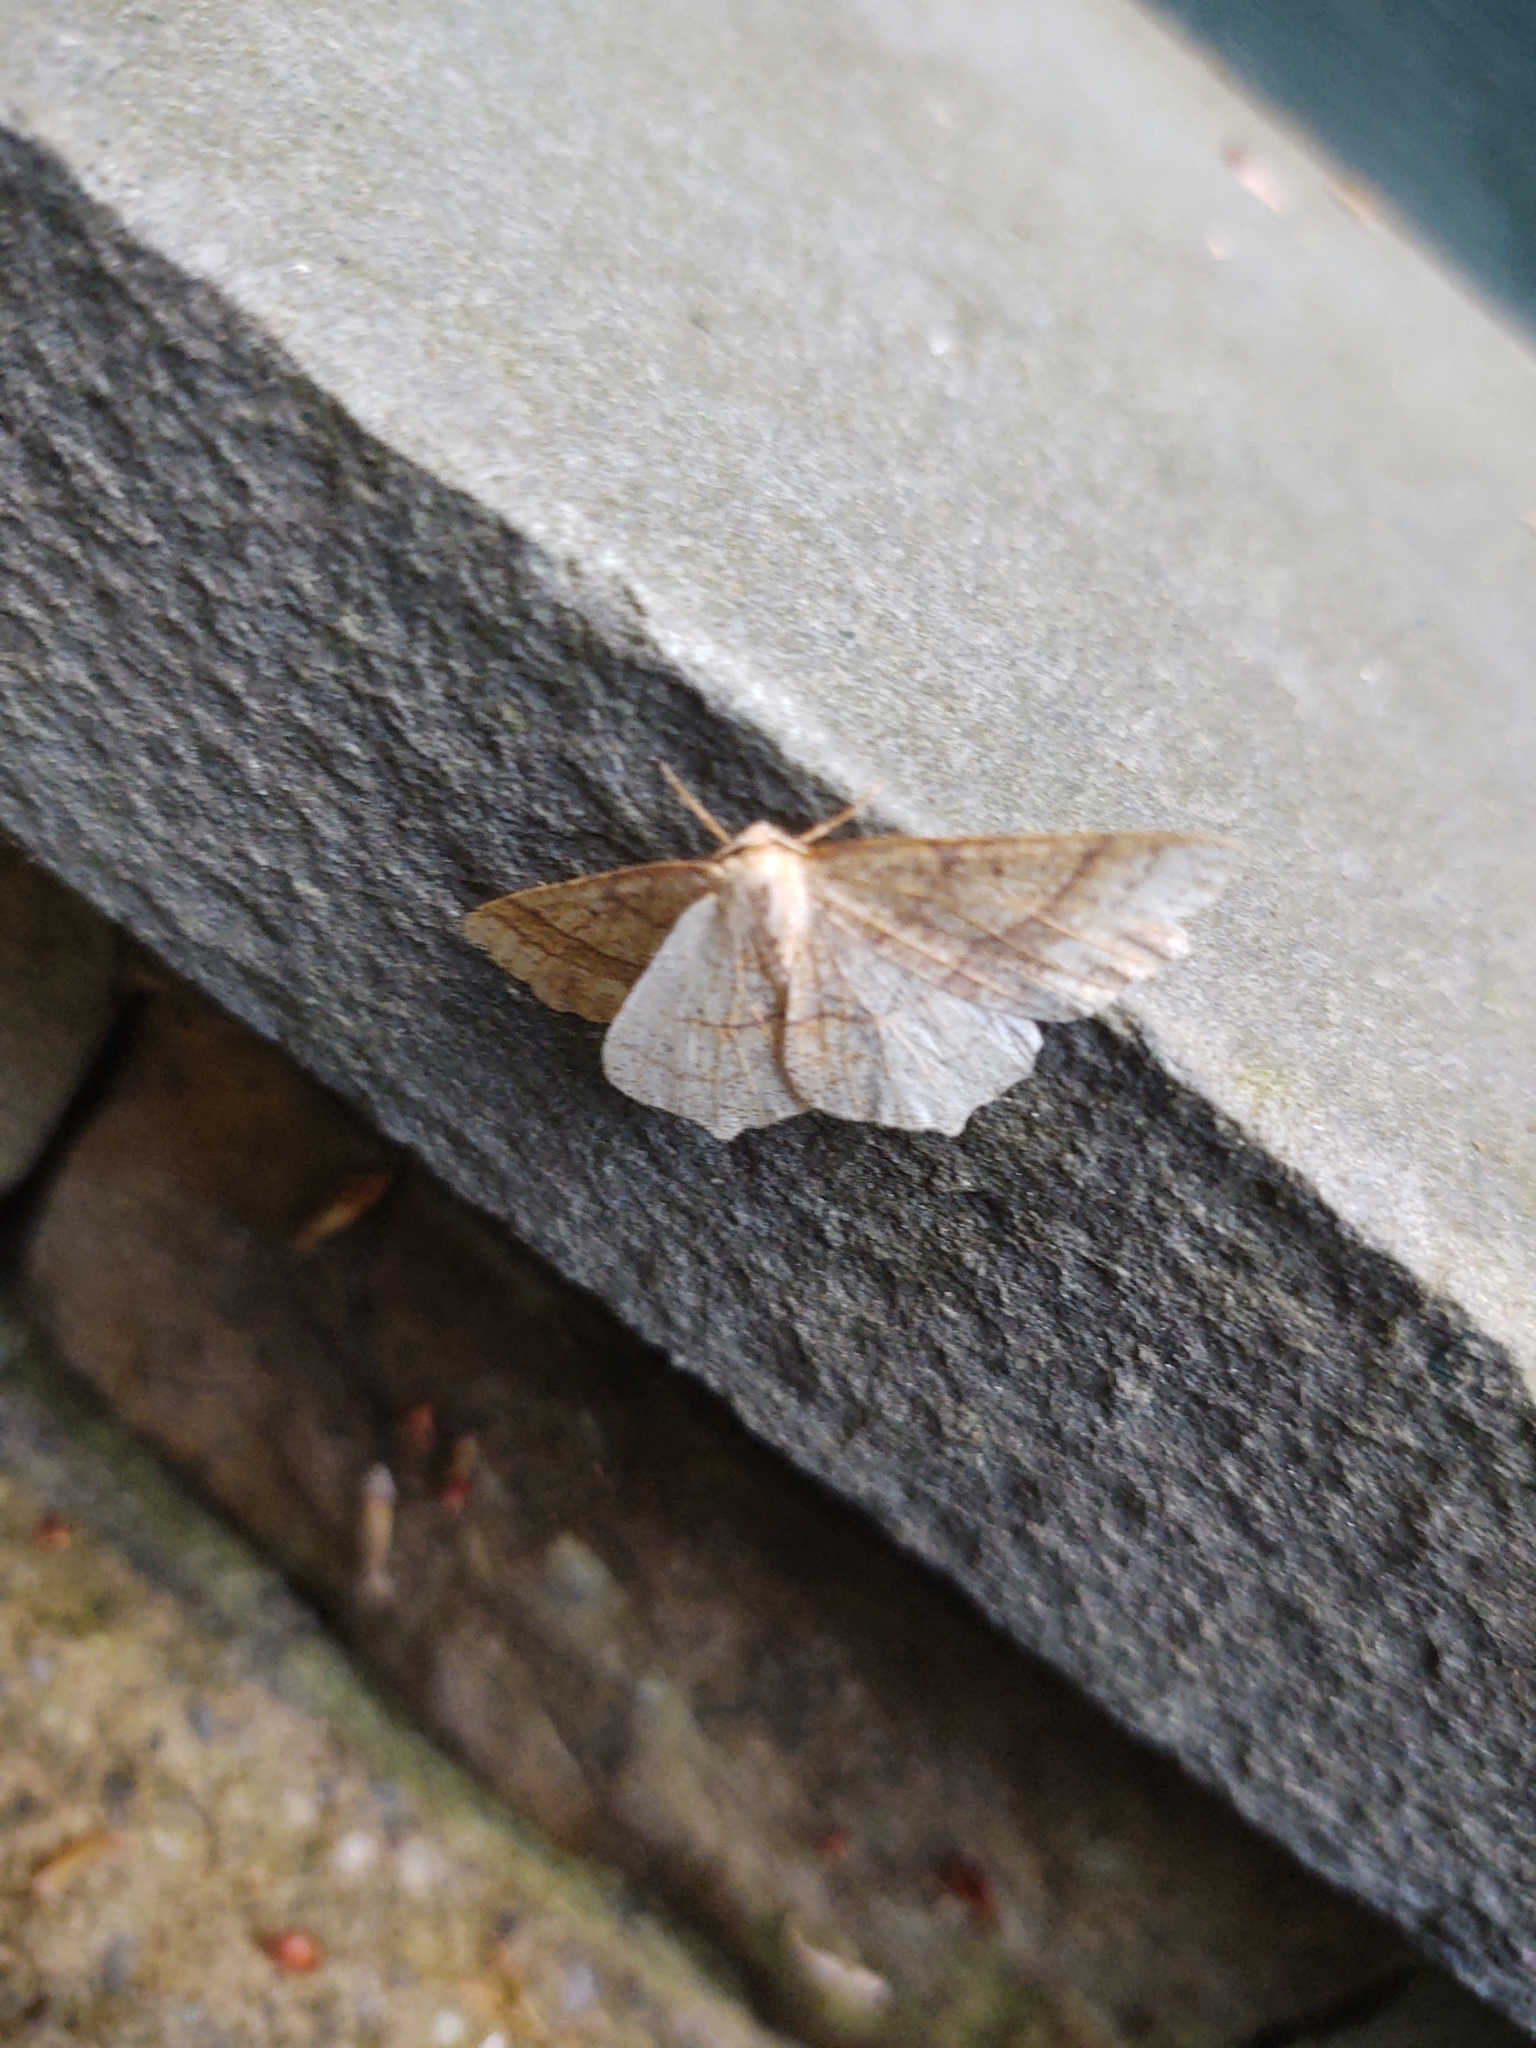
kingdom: Animalia
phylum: Arthropoda
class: Insecta
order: Lepidoptera
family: Geometridae
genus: Besma
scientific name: Besma quercivoraria
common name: Oak besma
